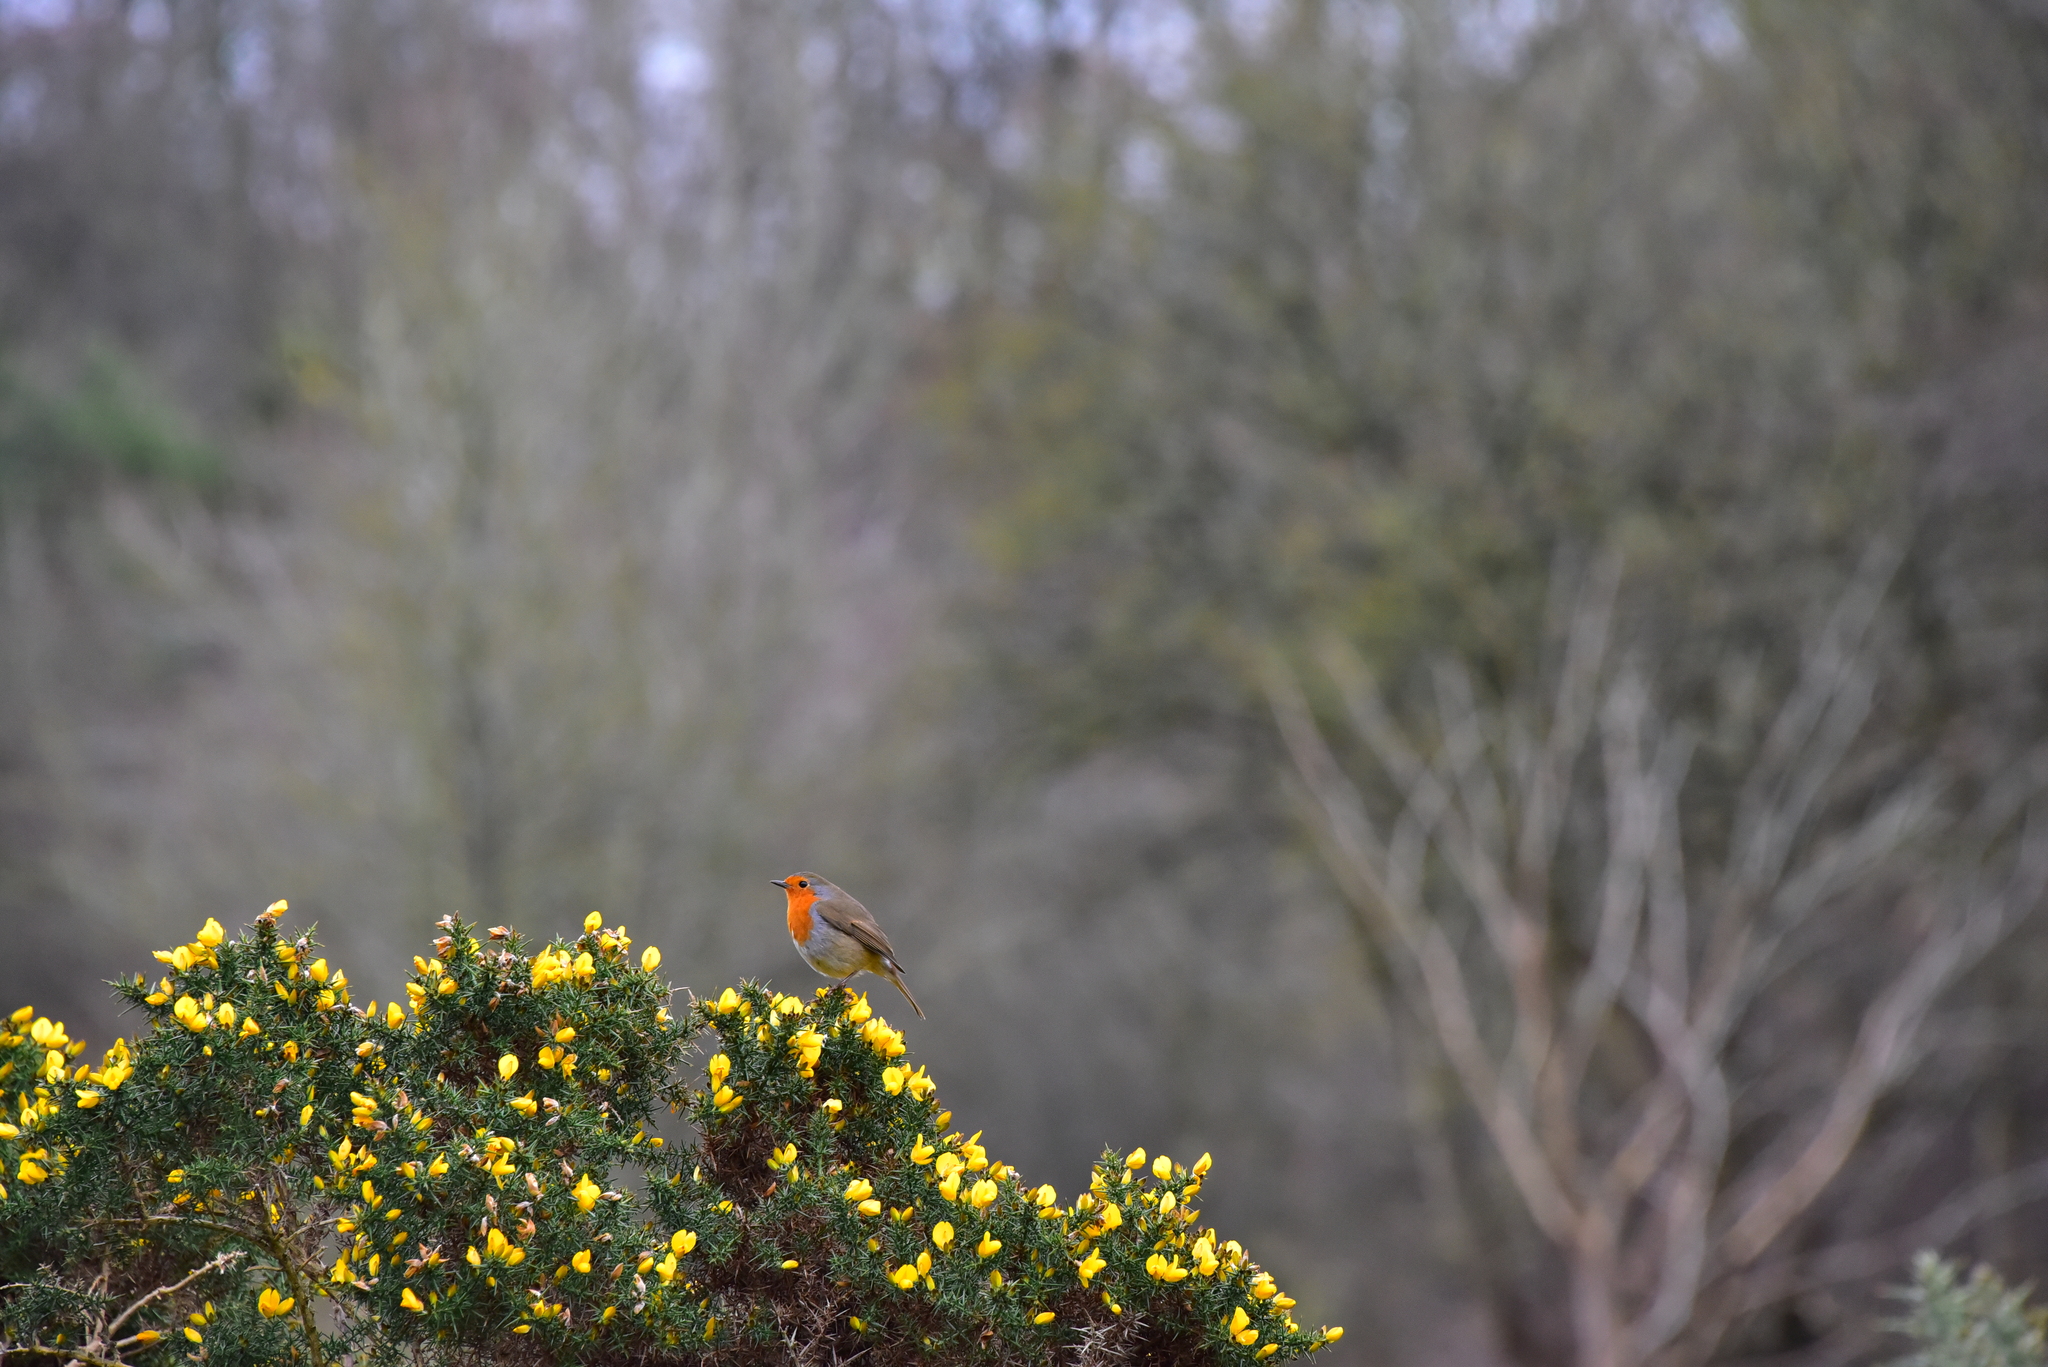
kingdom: Animalia
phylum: Chordata
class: Aves
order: Passeriformes
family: Muscicapidae
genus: Erithacus
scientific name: Erithacus rubecula
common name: European robin
